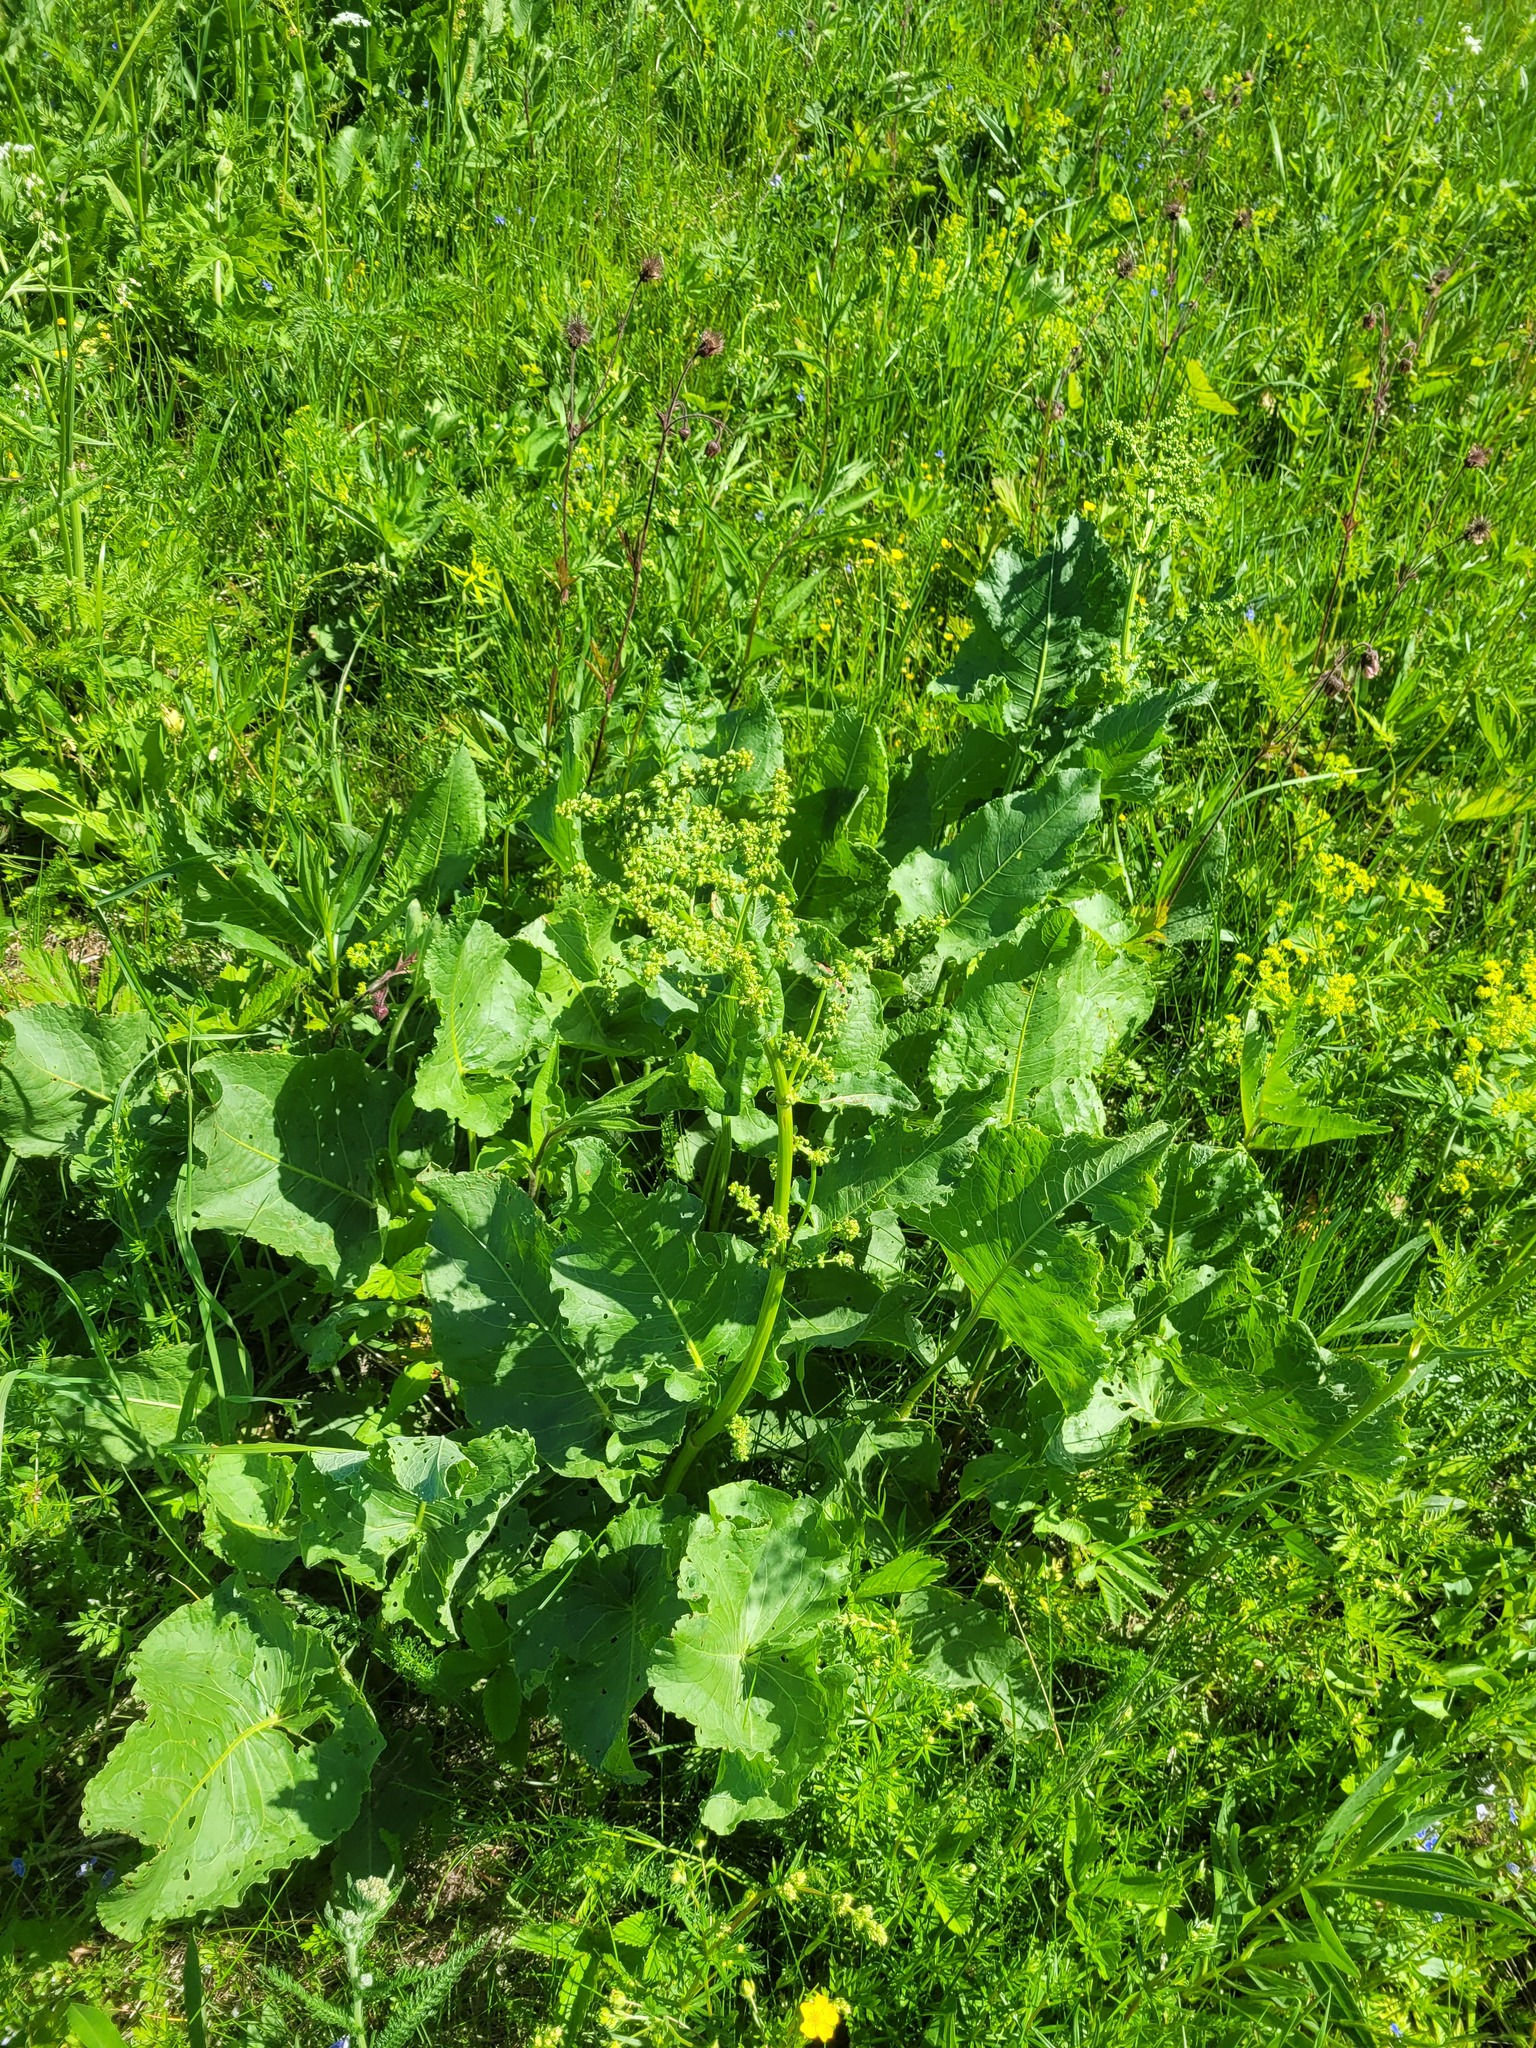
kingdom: Plantae
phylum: Tracheophyta
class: Magnoliopsida
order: Caryophyllales
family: Polygonaceae
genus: Rumex
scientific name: Rumex confertus
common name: Russian dock
